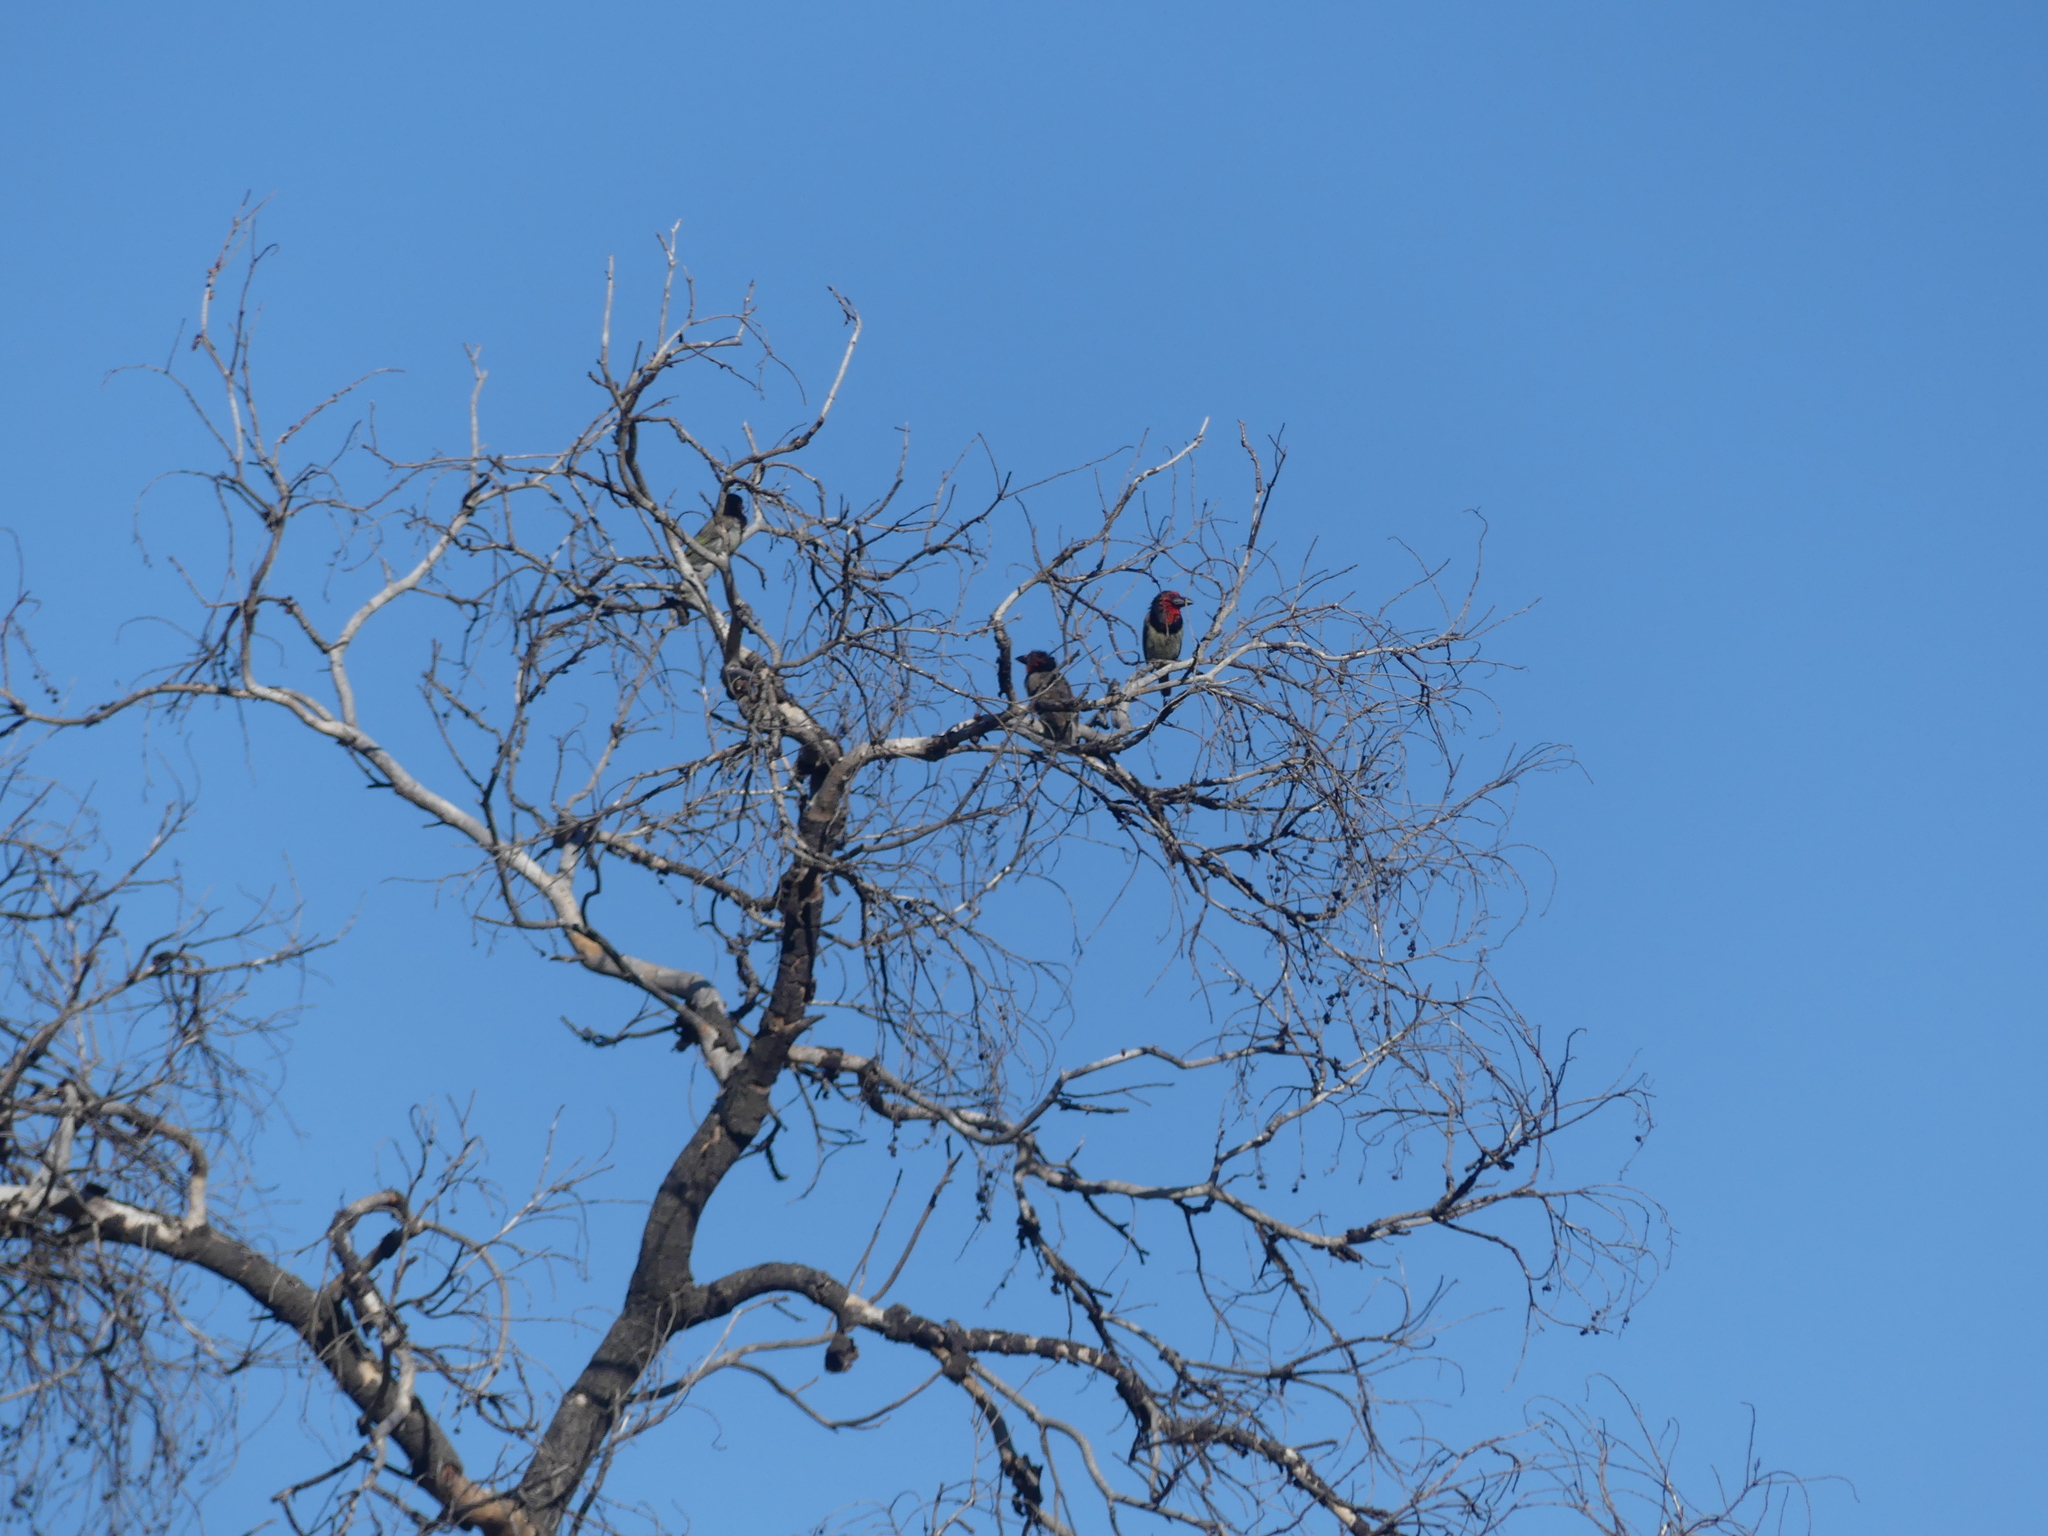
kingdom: Animalia
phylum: Chordata
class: Aves
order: Piciformes
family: Lybiidae
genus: Lybius
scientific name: Lybius torquatus
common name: Black-collared barbet
